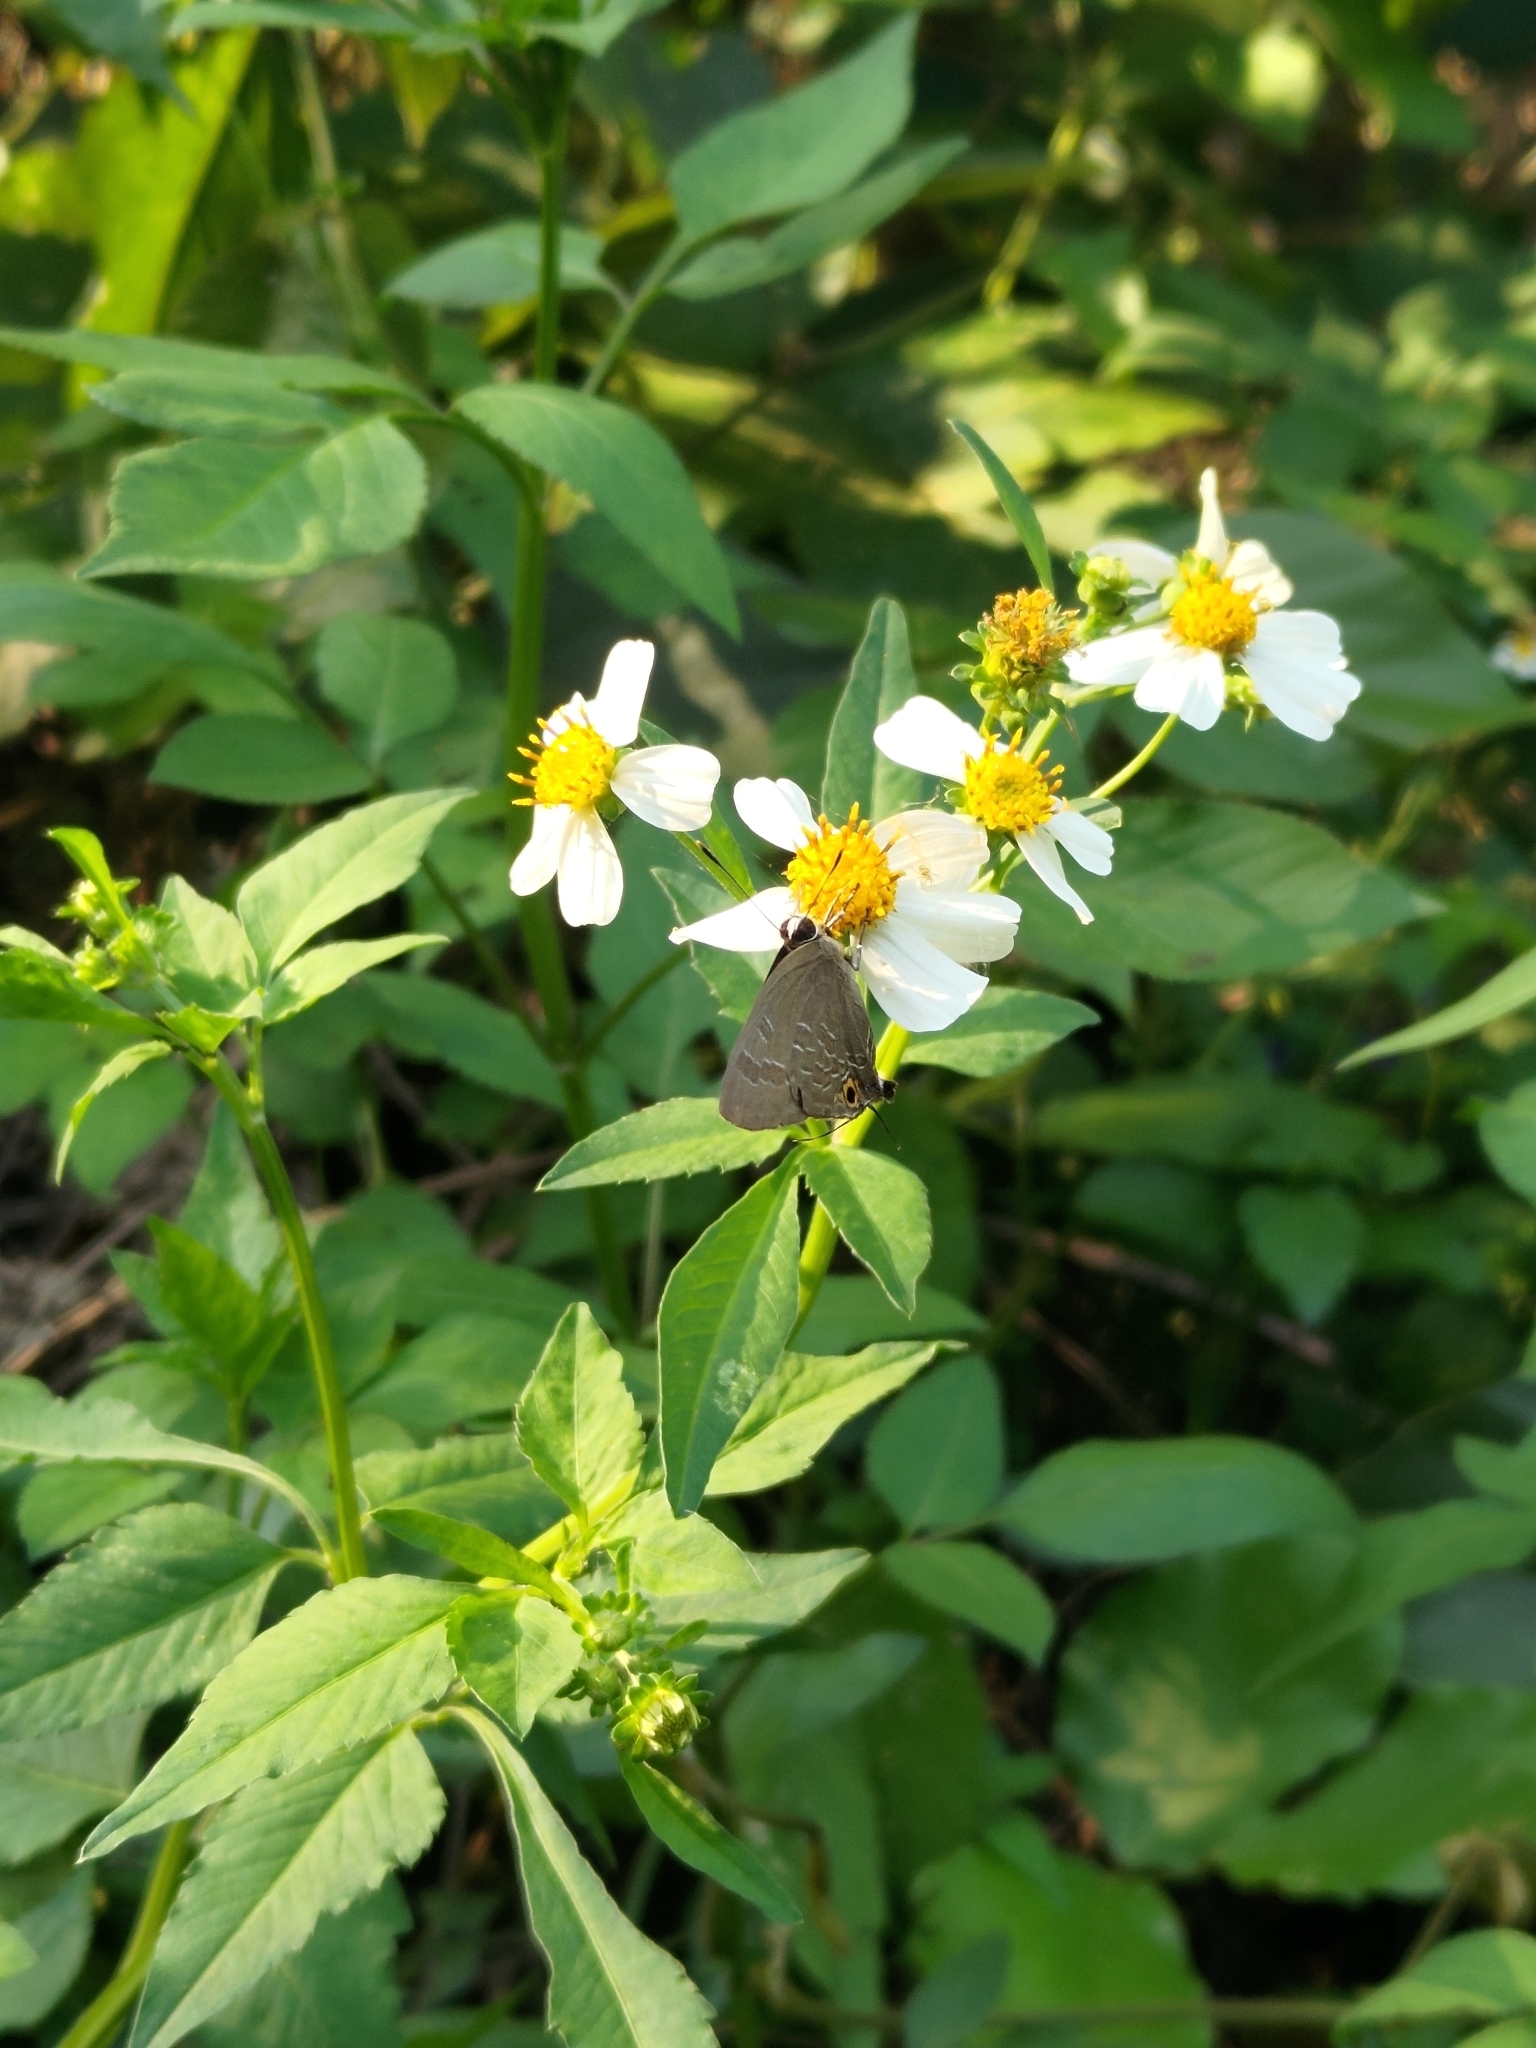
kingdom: Animalia
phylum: Arthropoda
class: Insecta
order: Lepidoptera
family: Lycaenidae
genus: Deudorix
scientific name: Deudorix epijarbas
